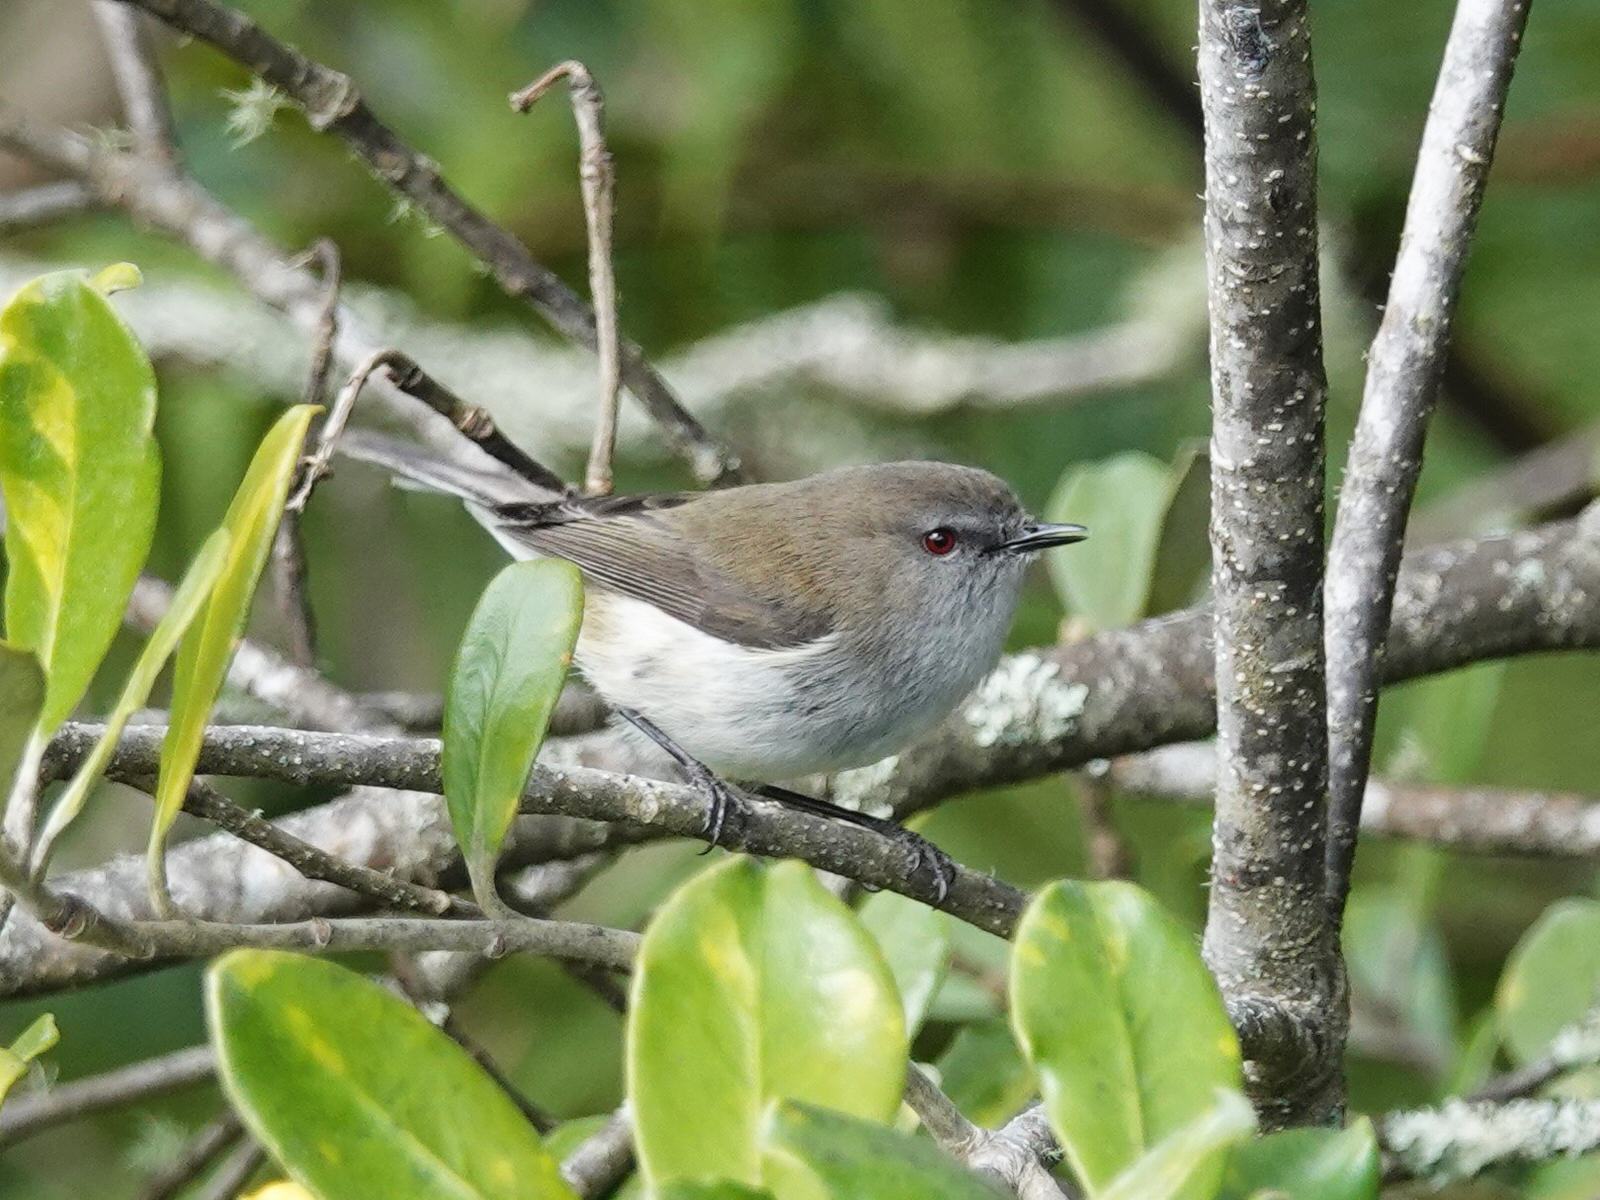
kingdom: Animalia
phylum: Chordata
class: Aves
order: Passeriformes
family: Acanthizidae
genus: Gerygone
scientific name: Gerygone igata
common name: Grey gerygone
